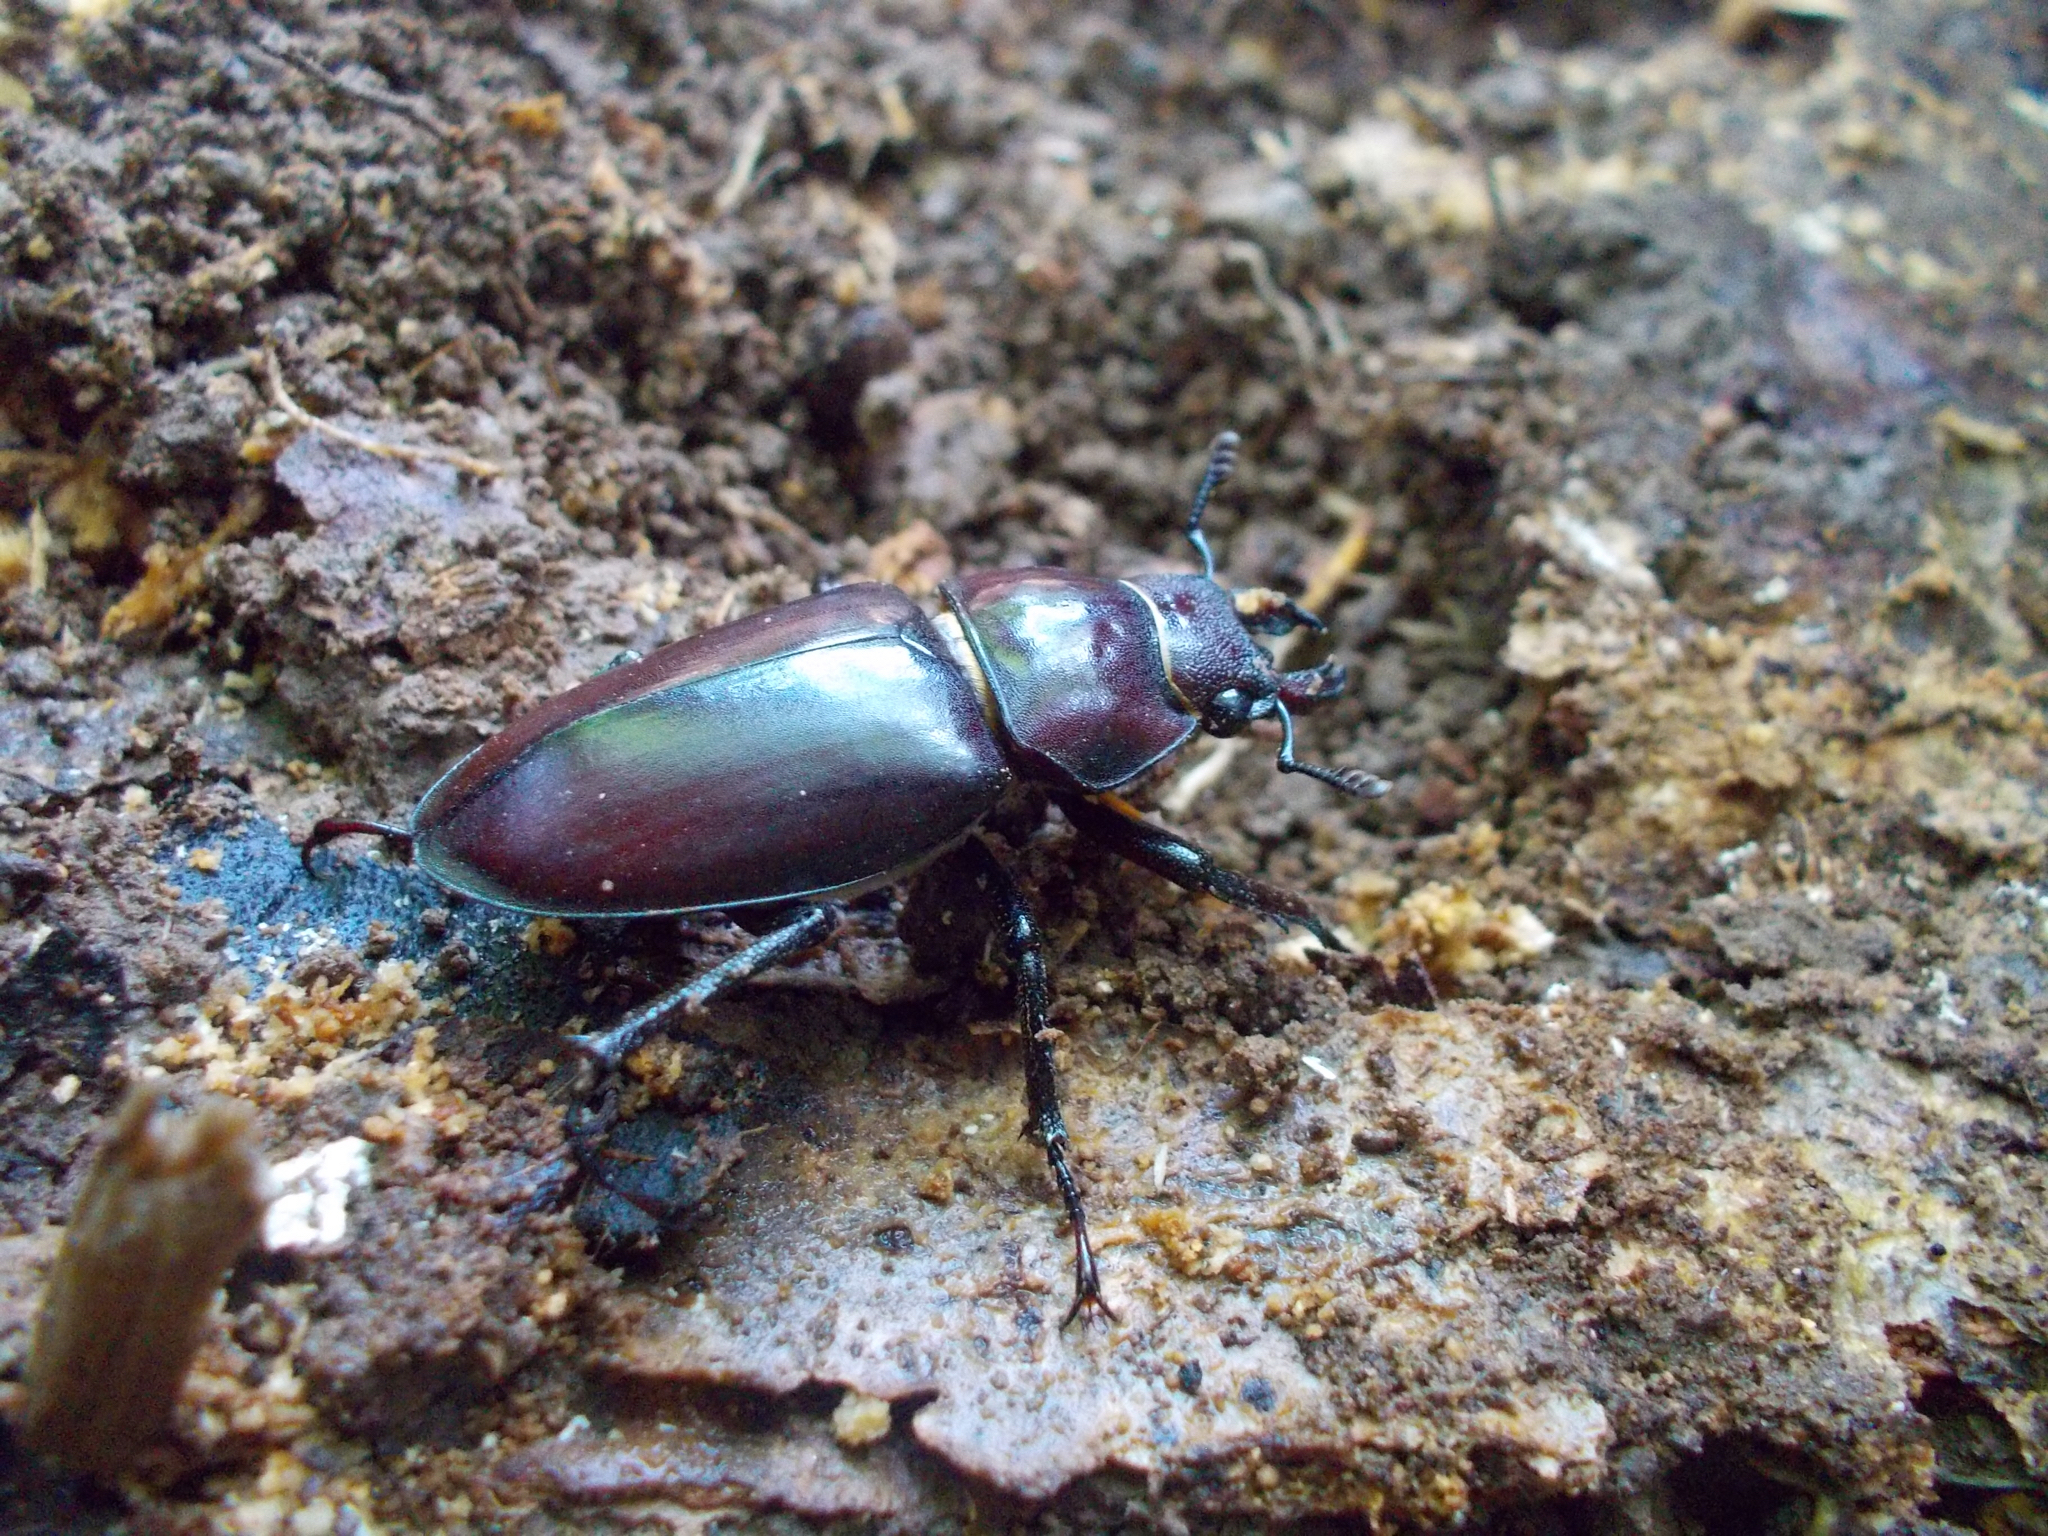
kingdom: Animalia
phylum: Arthropoda
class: Insecta
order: Coleoptera
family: Lucanidae
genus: Lucanus
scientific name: Lucanus capreolus
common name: Stag beetle
